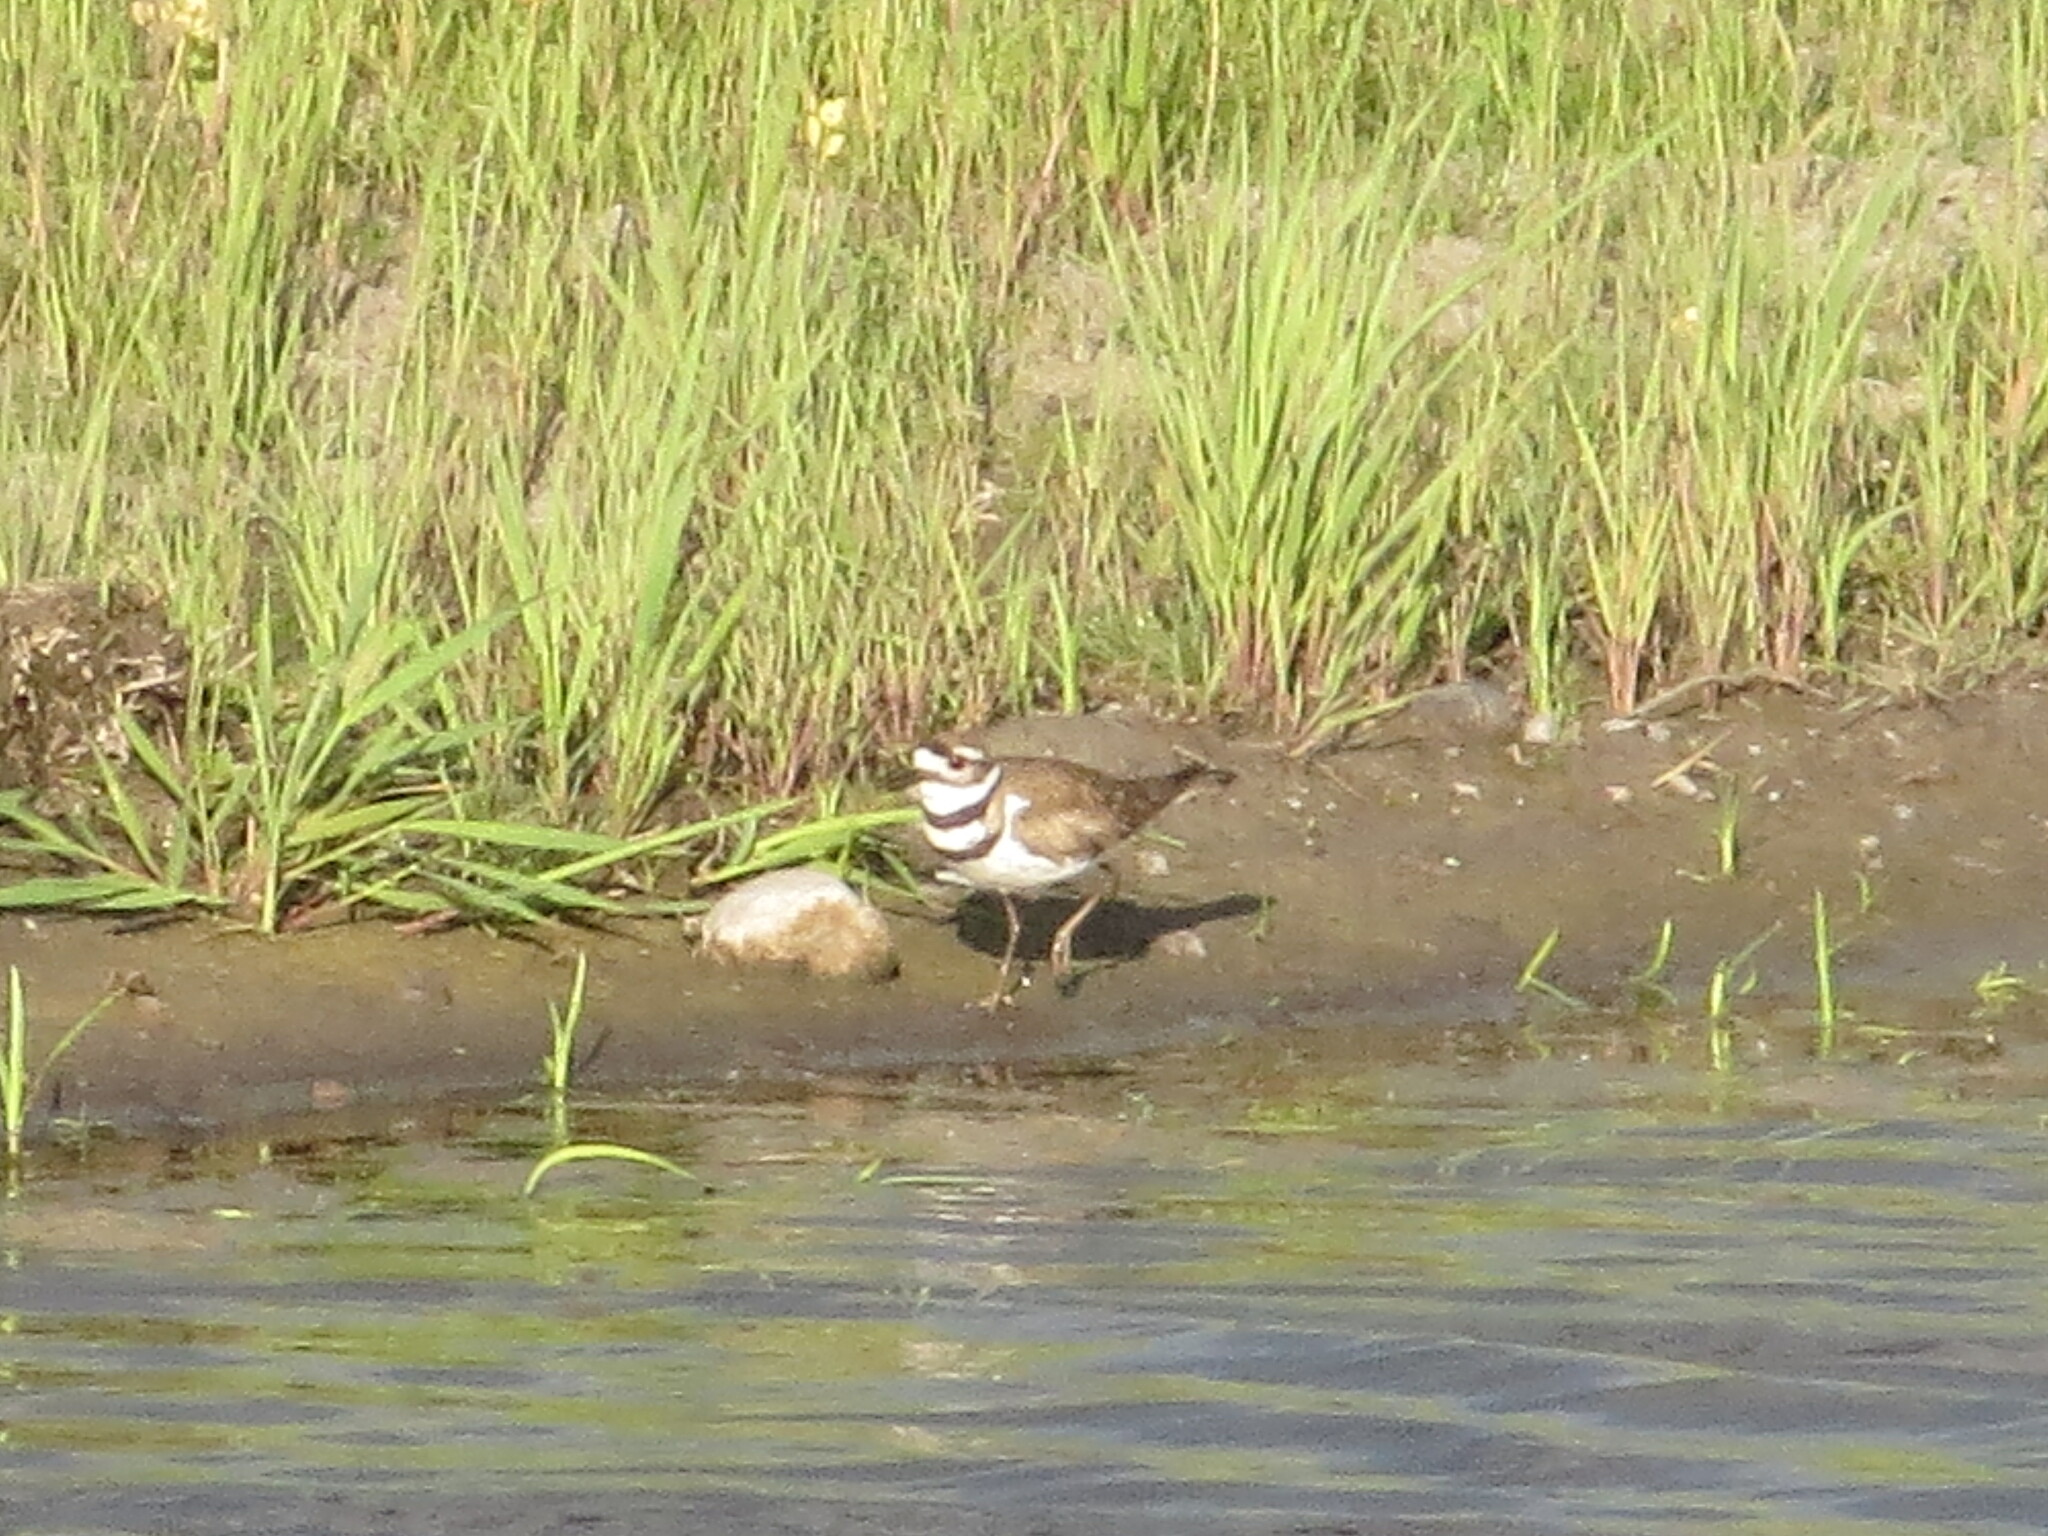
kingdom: Animalia
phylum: Chordata
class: Aves
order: Charadriiformes
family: Charadriidae
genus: Charadrius
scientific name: Charadrius vociferus
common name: Killdeer
